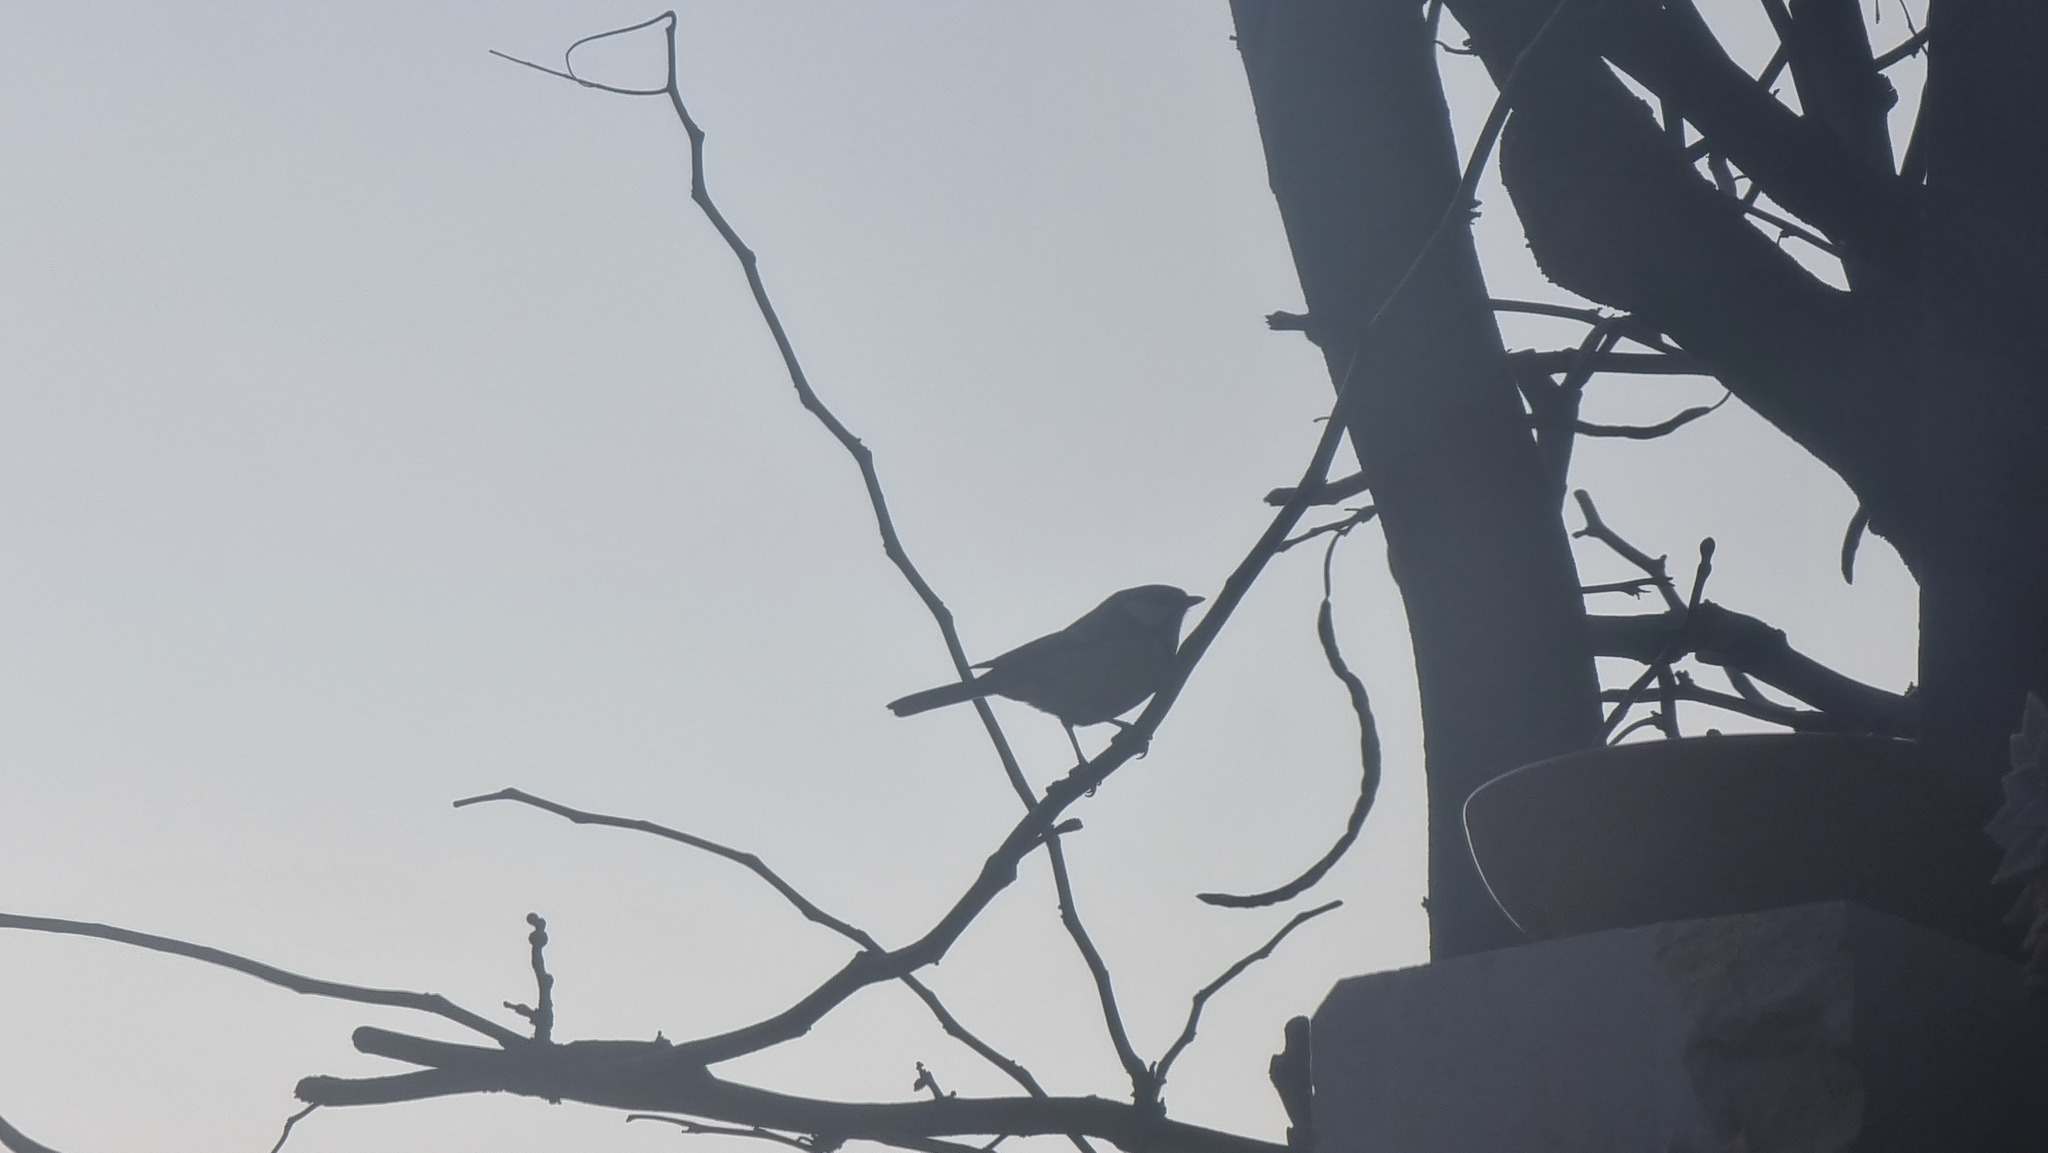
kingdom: Animalia
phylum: Chordata
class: Aves
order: Passeriformes
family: Paridae
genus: Parus
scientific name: Parus major
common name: Great tit
